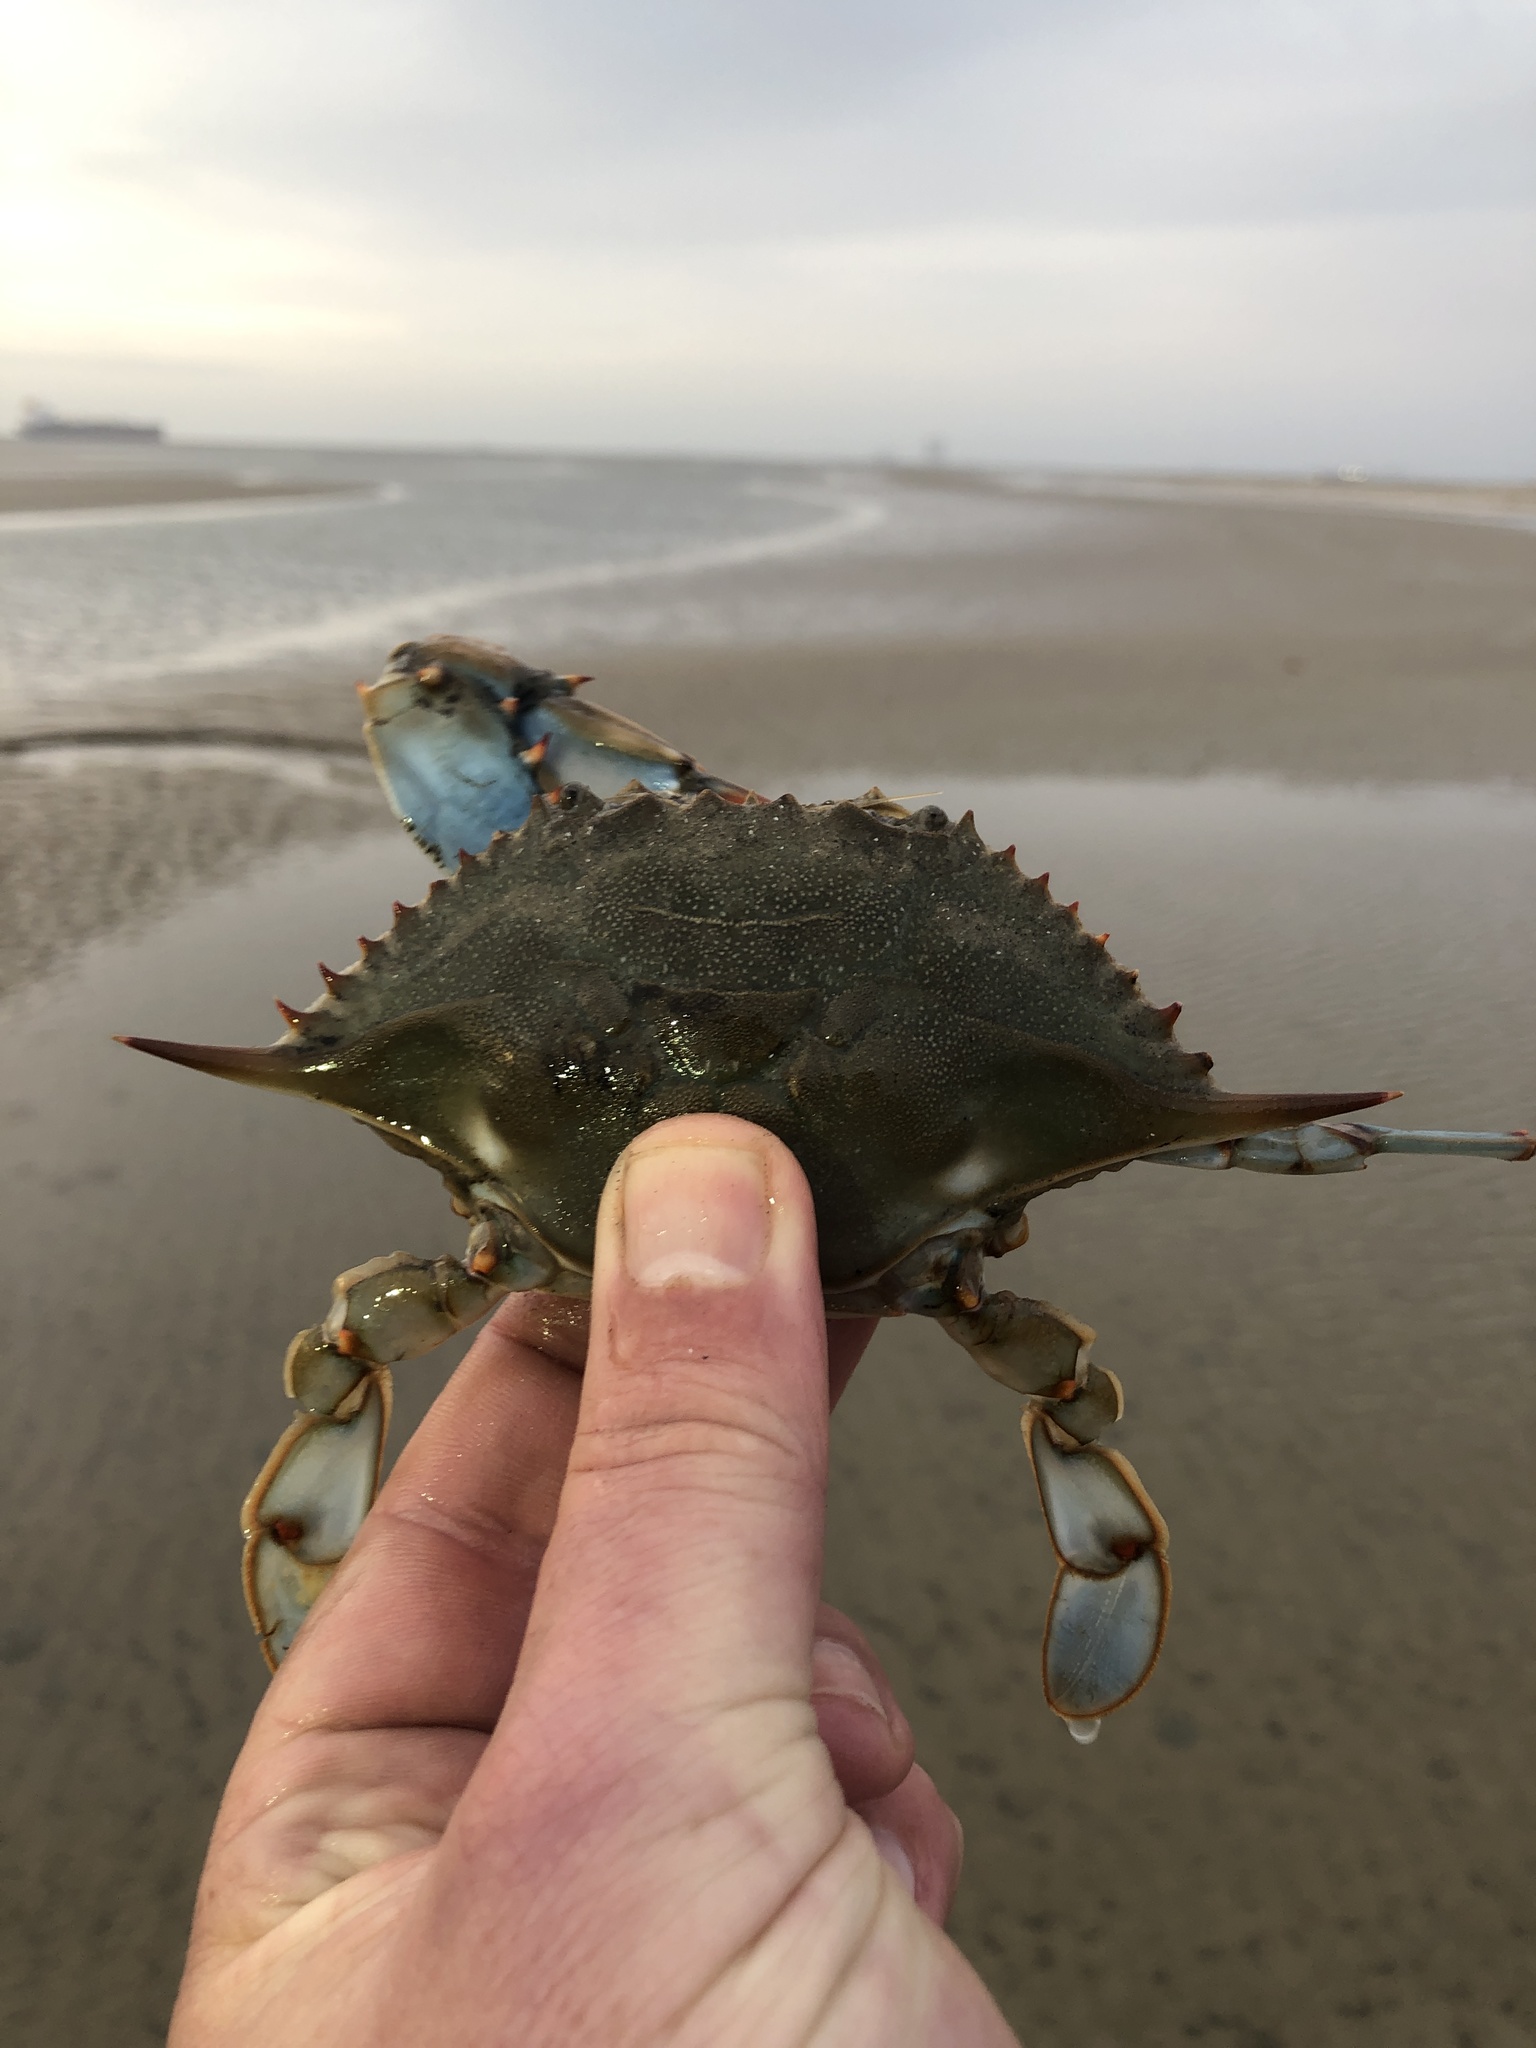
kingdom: Animalia
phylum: Arthropoda
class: Malacostraca
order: Decapoda
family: Portunidae
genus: Callinectes
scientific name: Callinectes sapidus
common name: Blue crab
